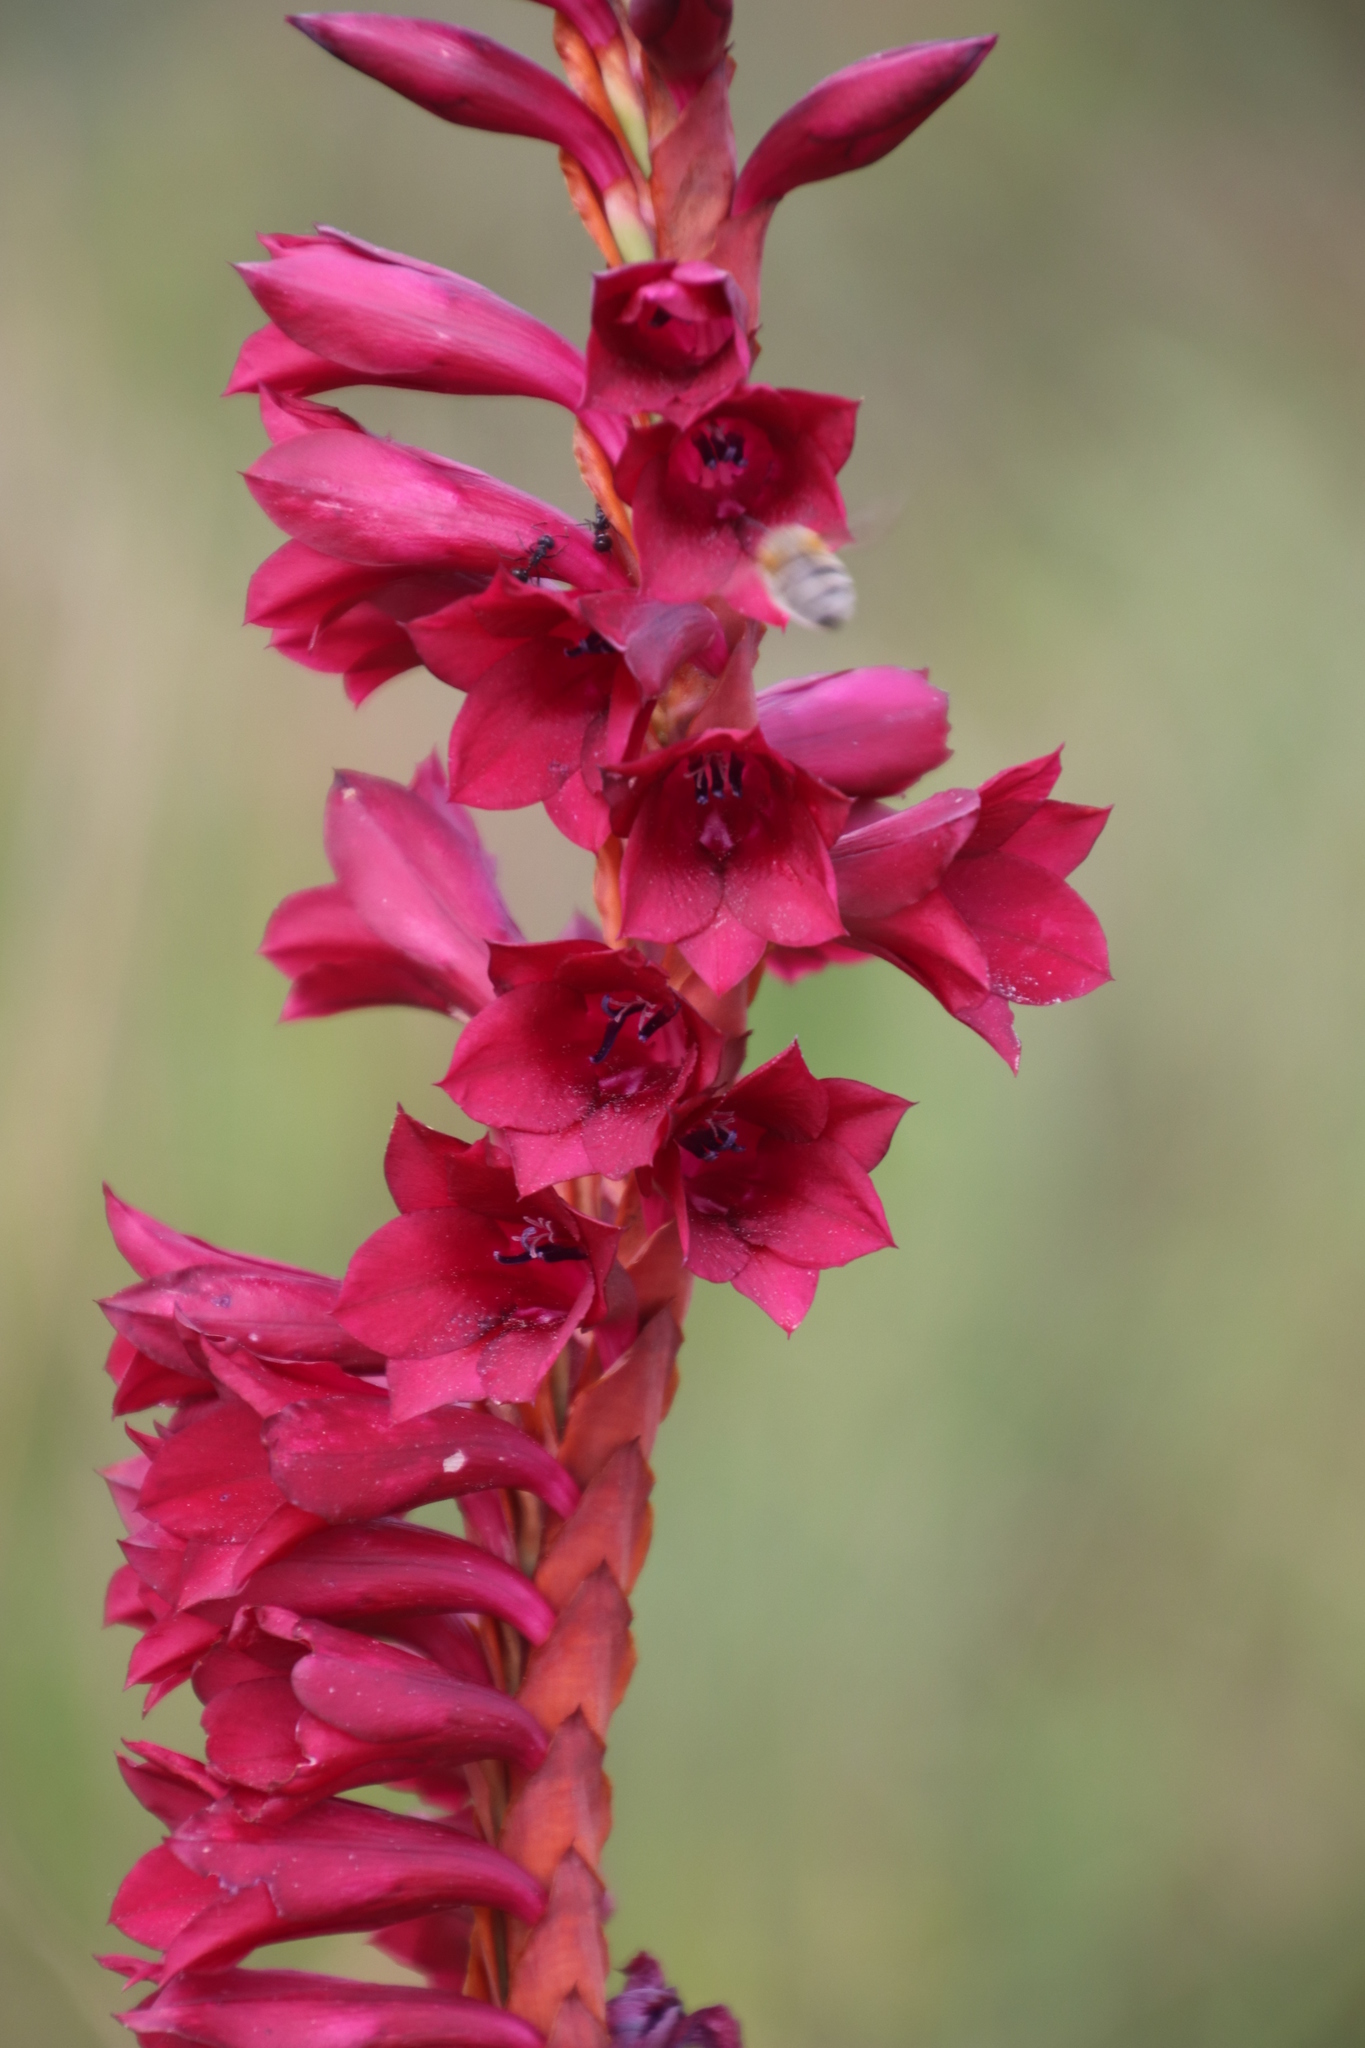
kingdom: Plantae
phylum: Tracheophyta
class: Liliopsida
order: Asparagales
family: Iridaceae
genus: Watsonia
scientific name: Watsonia pulchra
